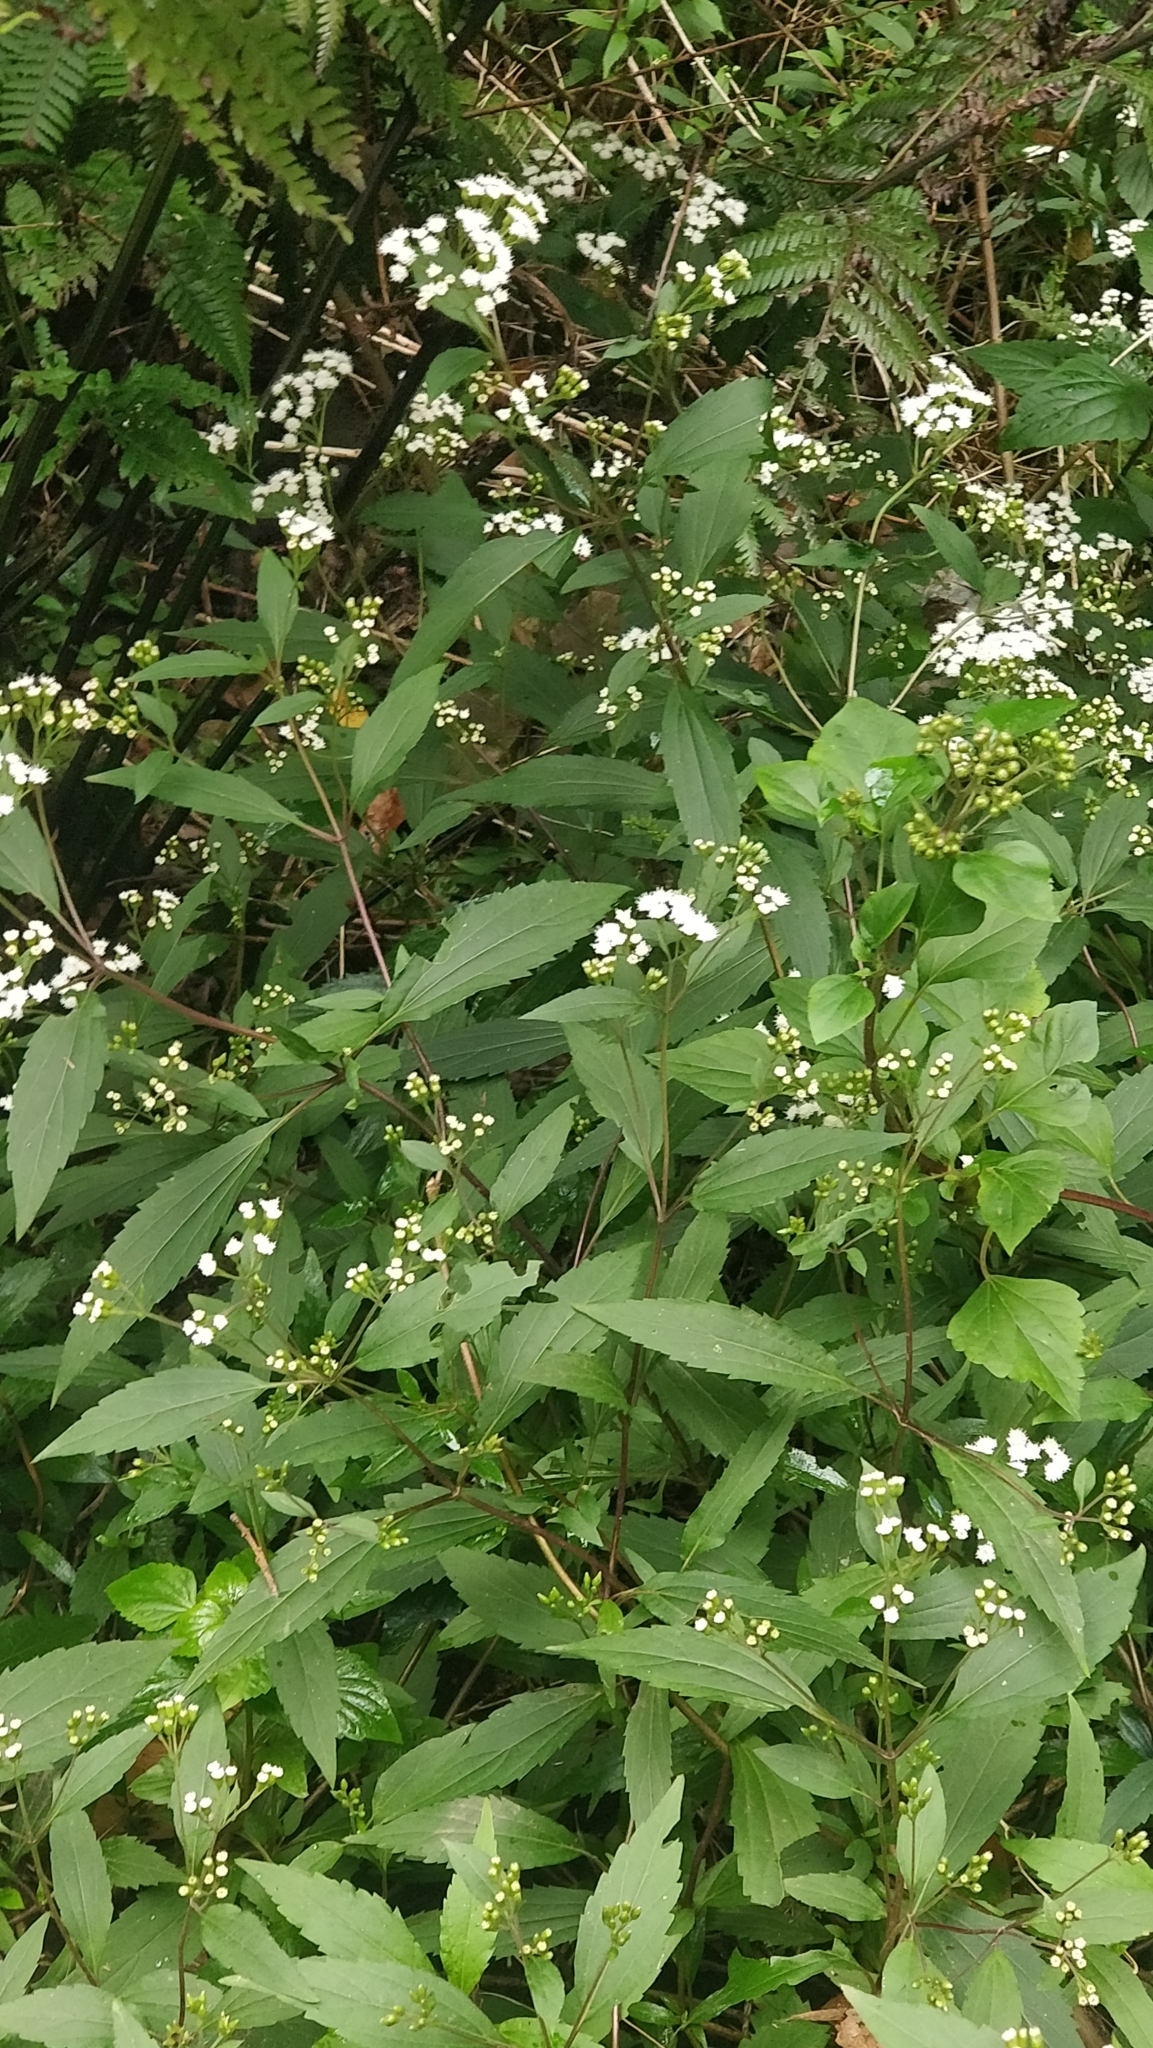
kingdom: Plantae
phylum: Tracheophyta
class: Magnoliopsida
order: Asterales
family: Asteraceae
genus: Ageratina
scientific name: Ageratina riparia
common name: Creeping croftonweed
